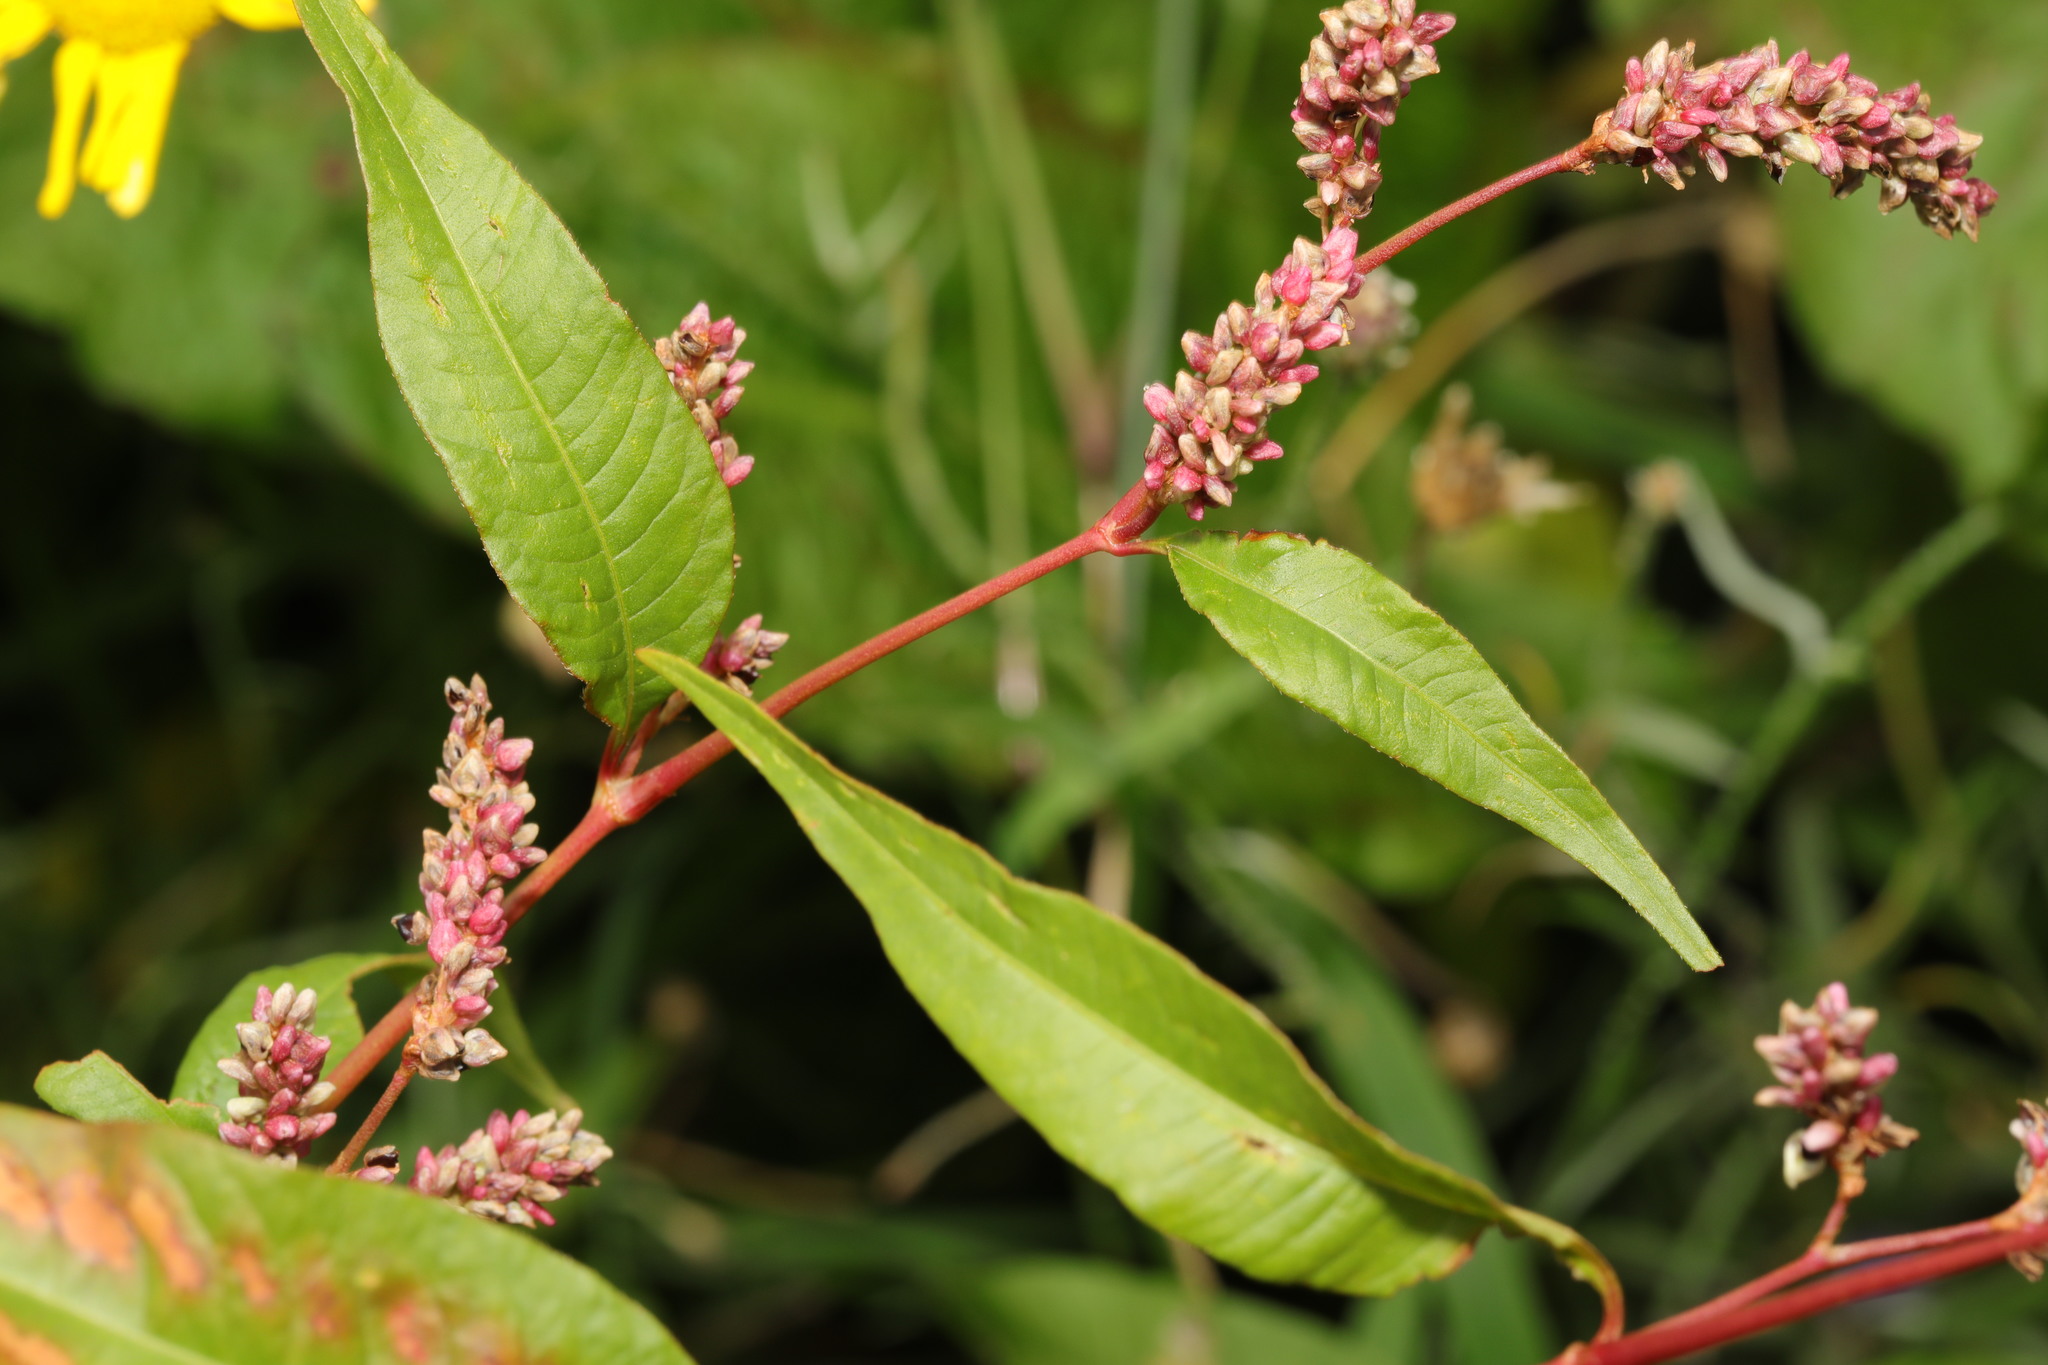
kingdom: Plantae
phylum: Tracheophyta
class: Magnoliopsida
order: Caryophyllales
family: Polygonaceae
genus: Persicaria
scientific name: Persicaria maculosa
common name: Redshank
